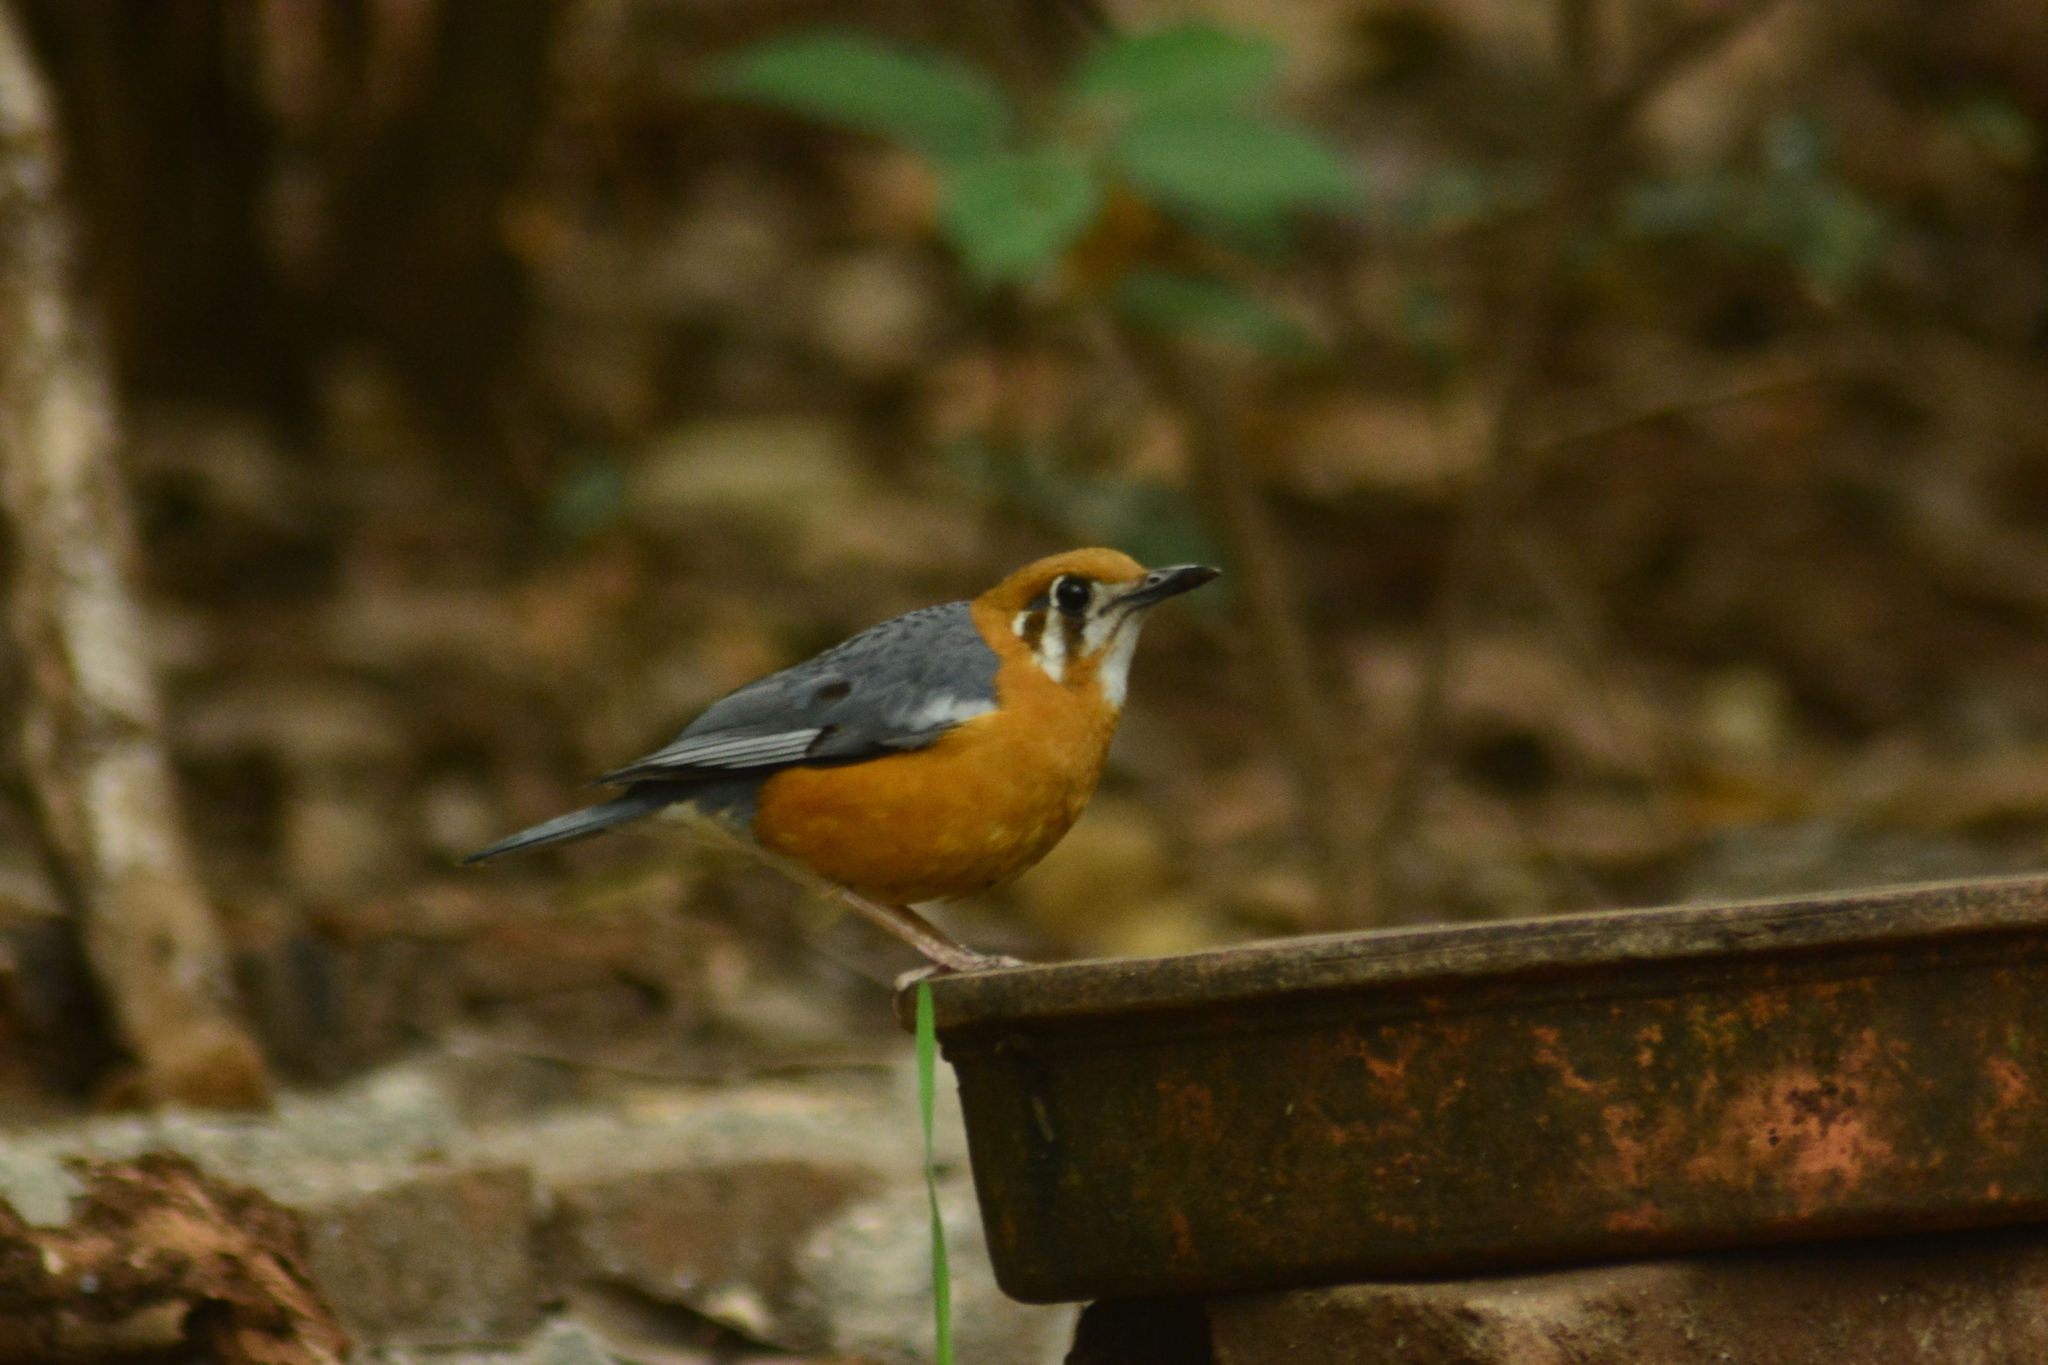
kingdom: Animalia
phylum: Chordata
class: Aves
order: Passeriformes
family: Turdidae
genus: Geokichla
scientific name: Geokichla citrina
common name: Orange-headed thrush
